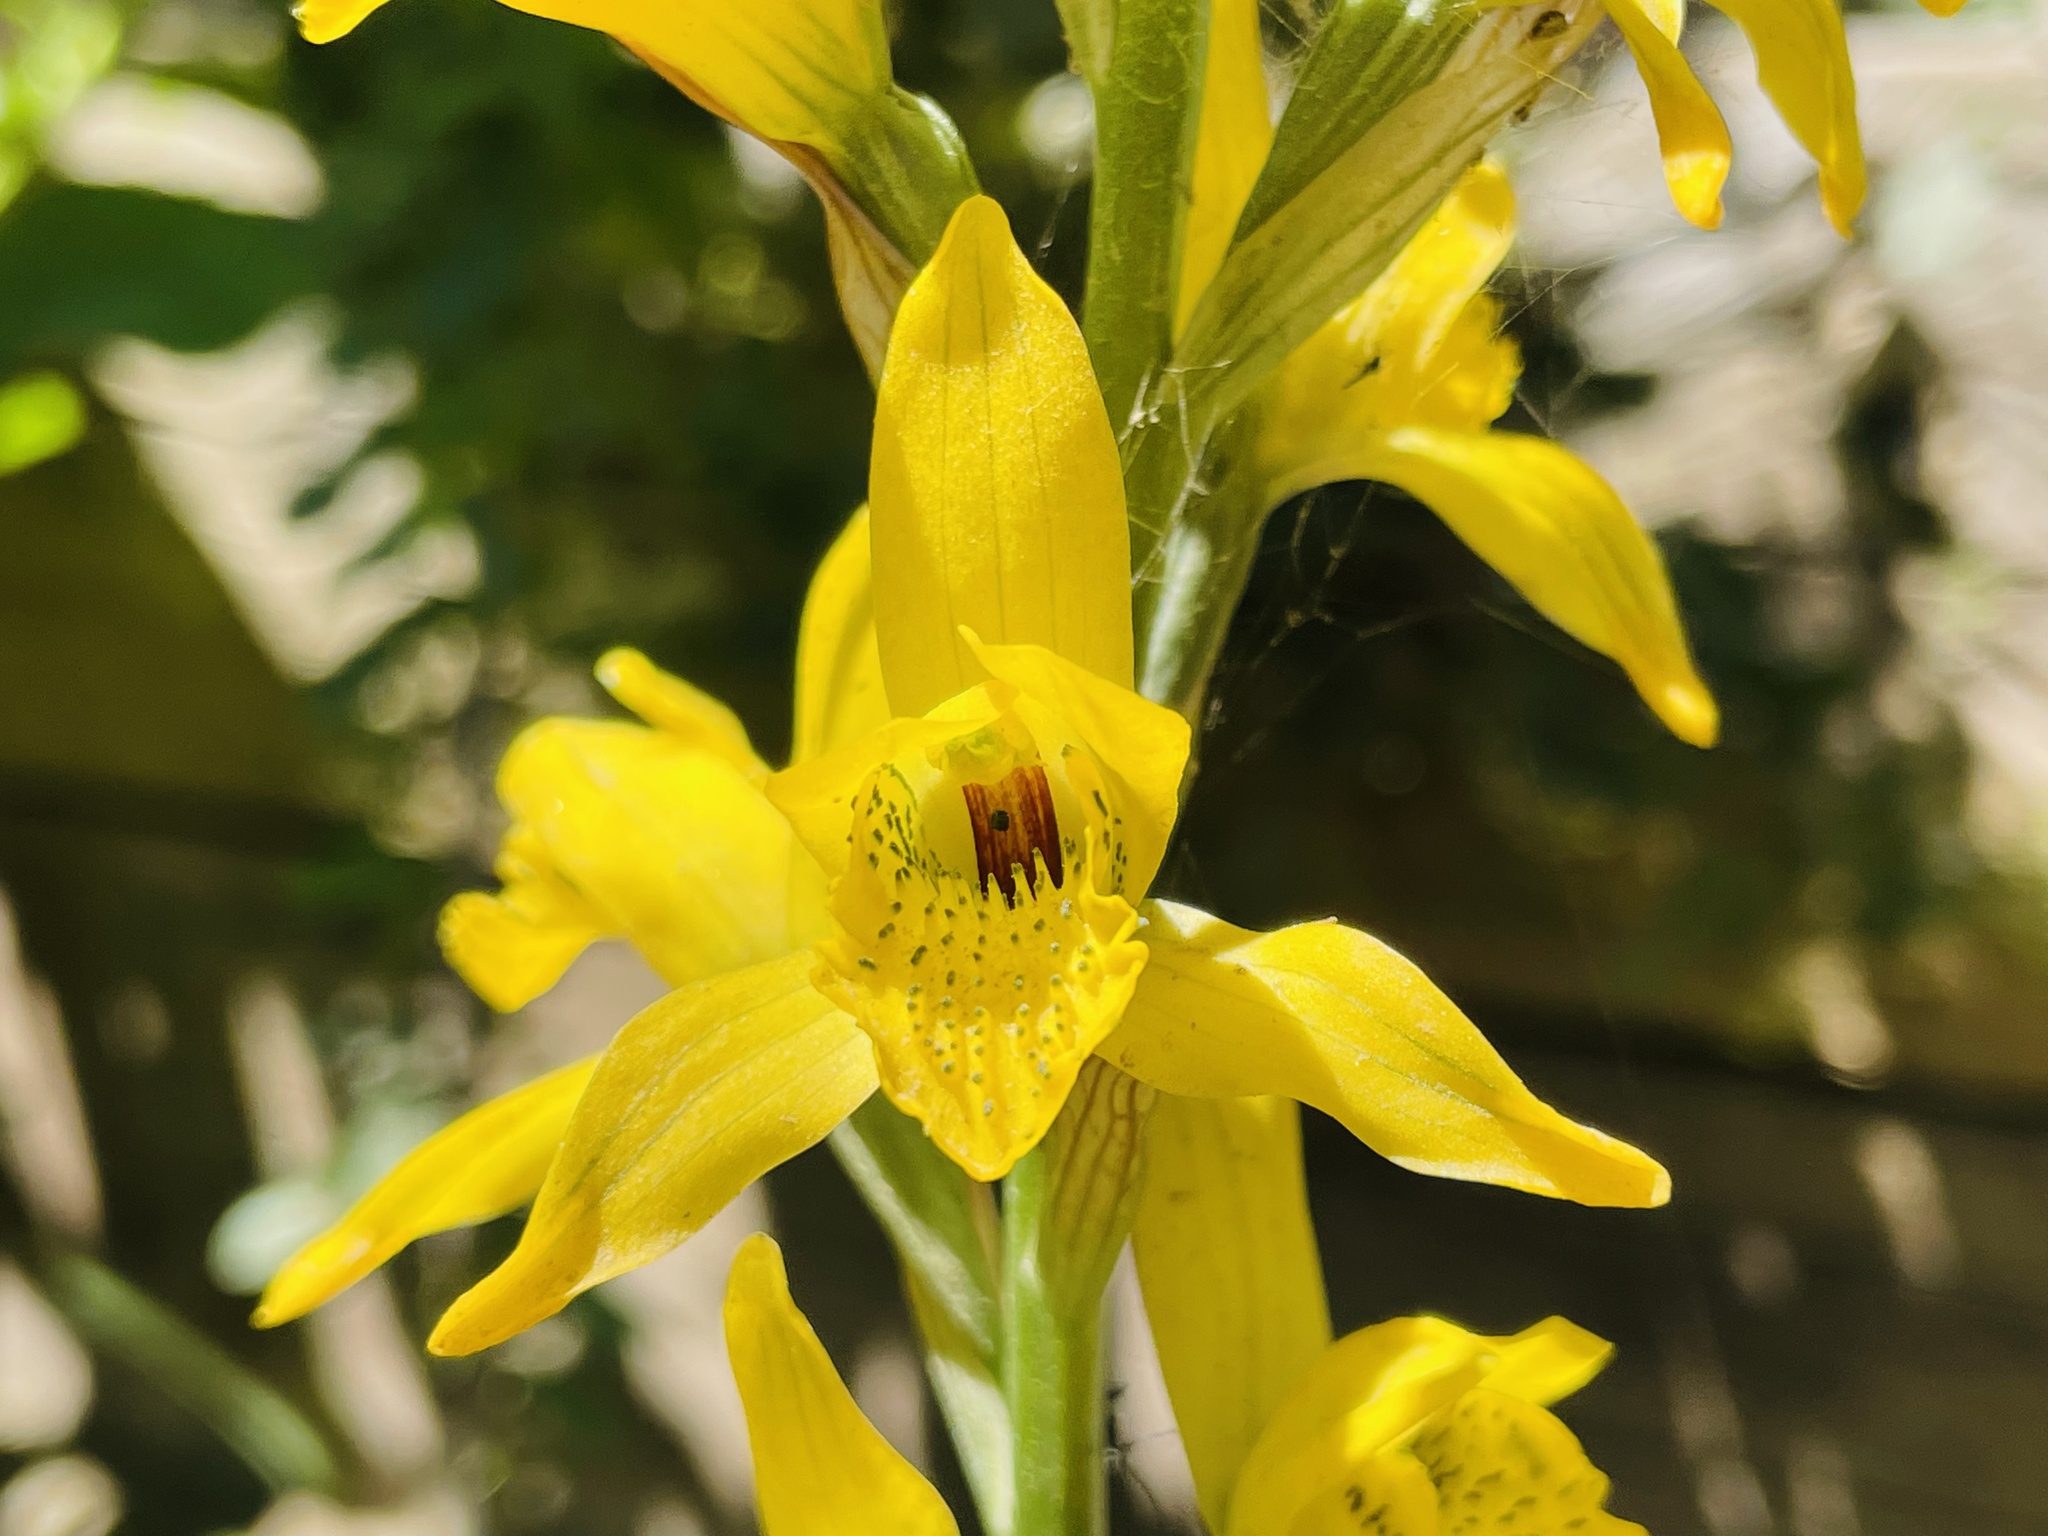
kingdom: Plantae
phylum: Tracheophyta
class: Liliopsida
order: Asparagales
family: Orchidaceae
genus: Chloraea
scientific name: Chloraea chrysantha
